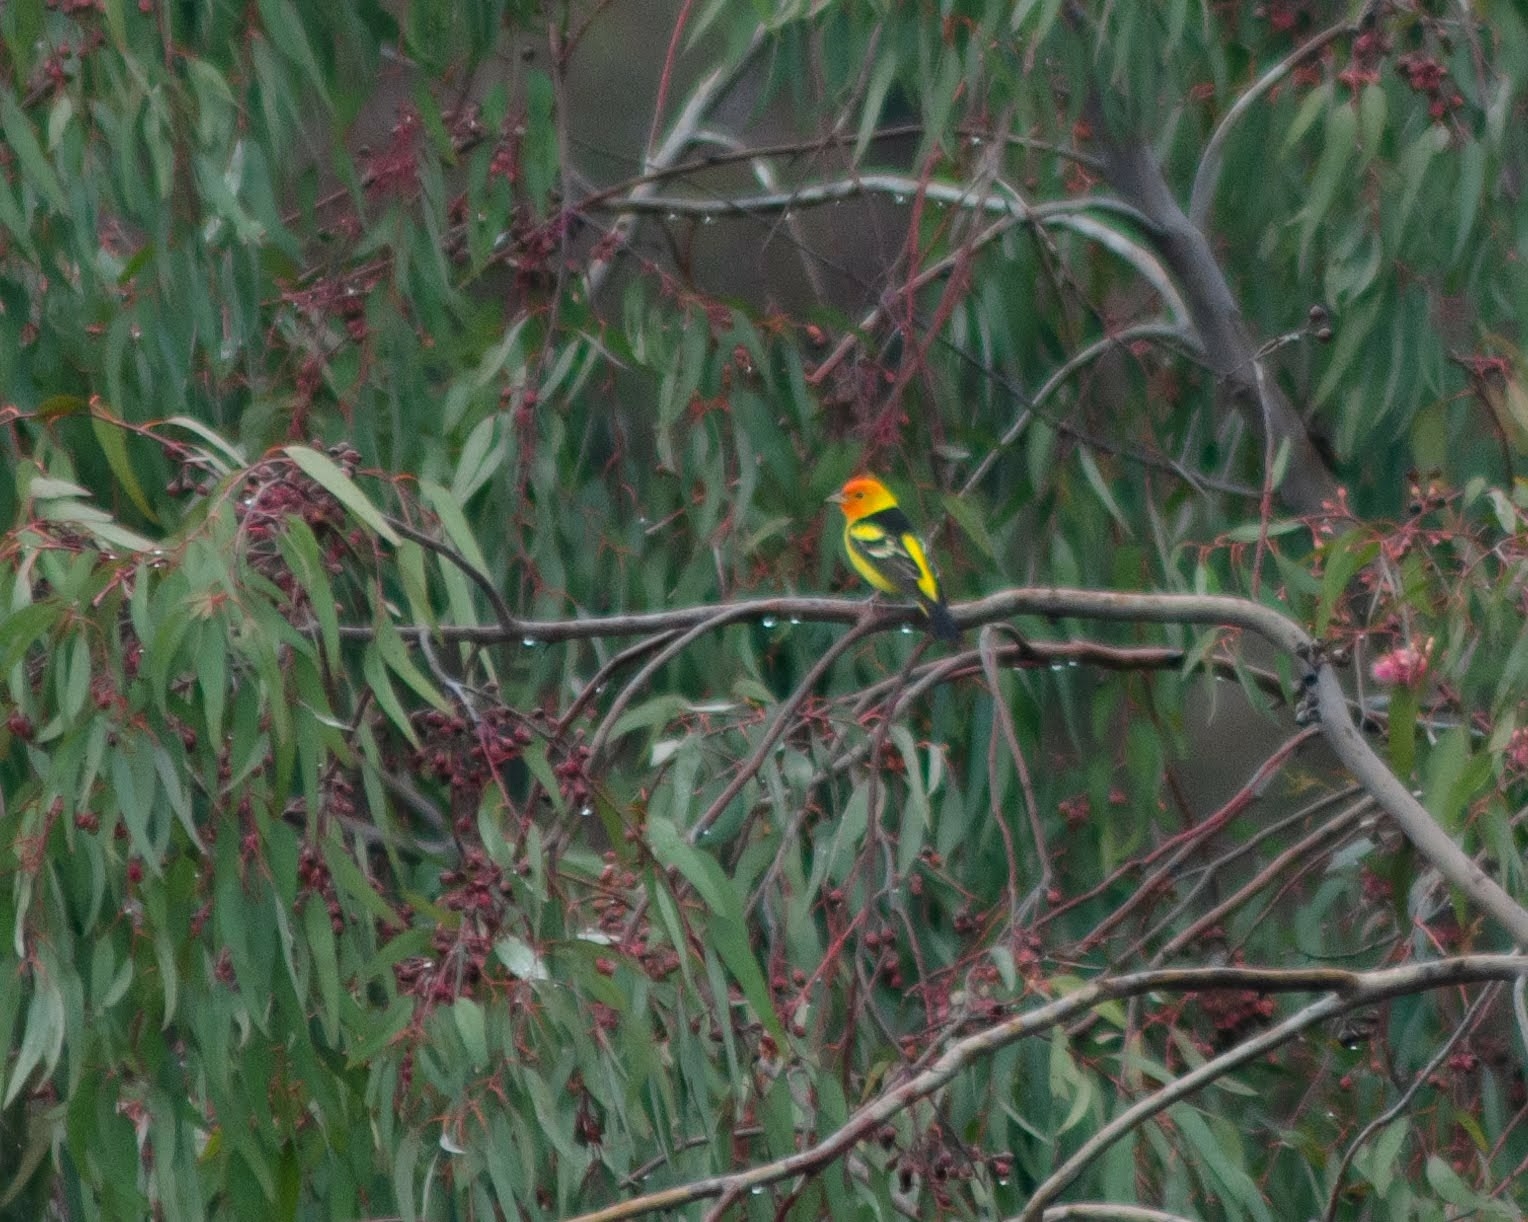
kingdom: Animalia
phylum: Chordata
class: Aves
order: Passeriformes
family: Cardinalidae
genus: Piranga
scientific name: Piranga ludoviciana
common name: Western tanager
